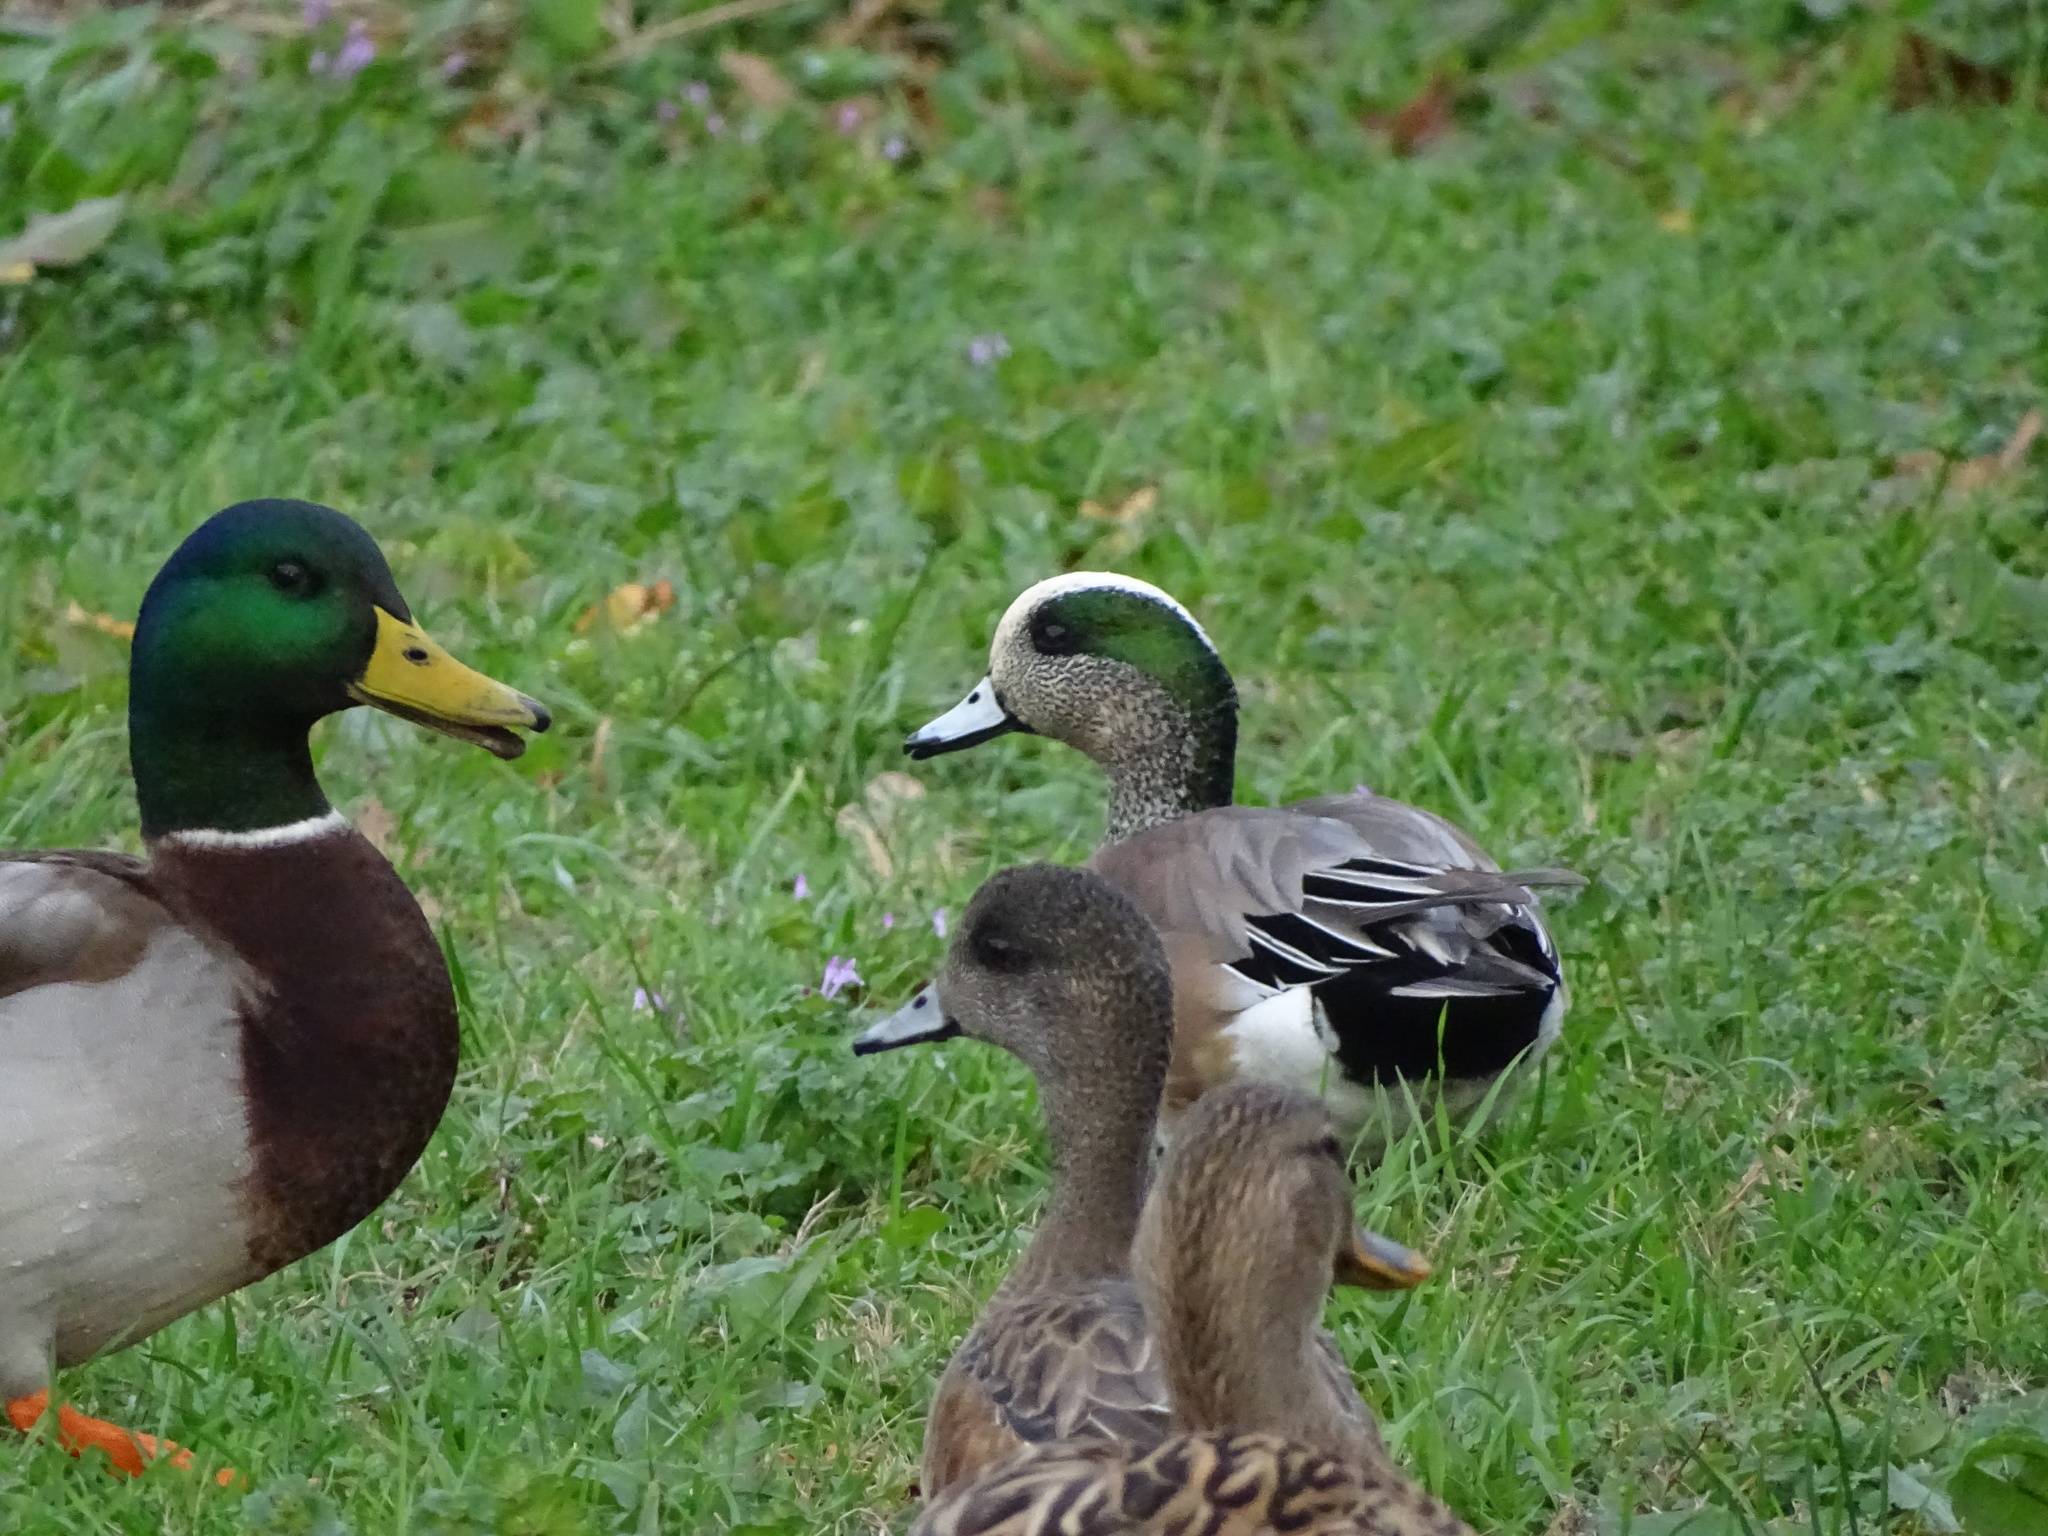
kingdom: Animalia
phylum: Chordata
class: Aves
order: Anseriformes
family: Anatidae
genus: Mareca
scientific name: Mareca americana
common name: American wigeon
